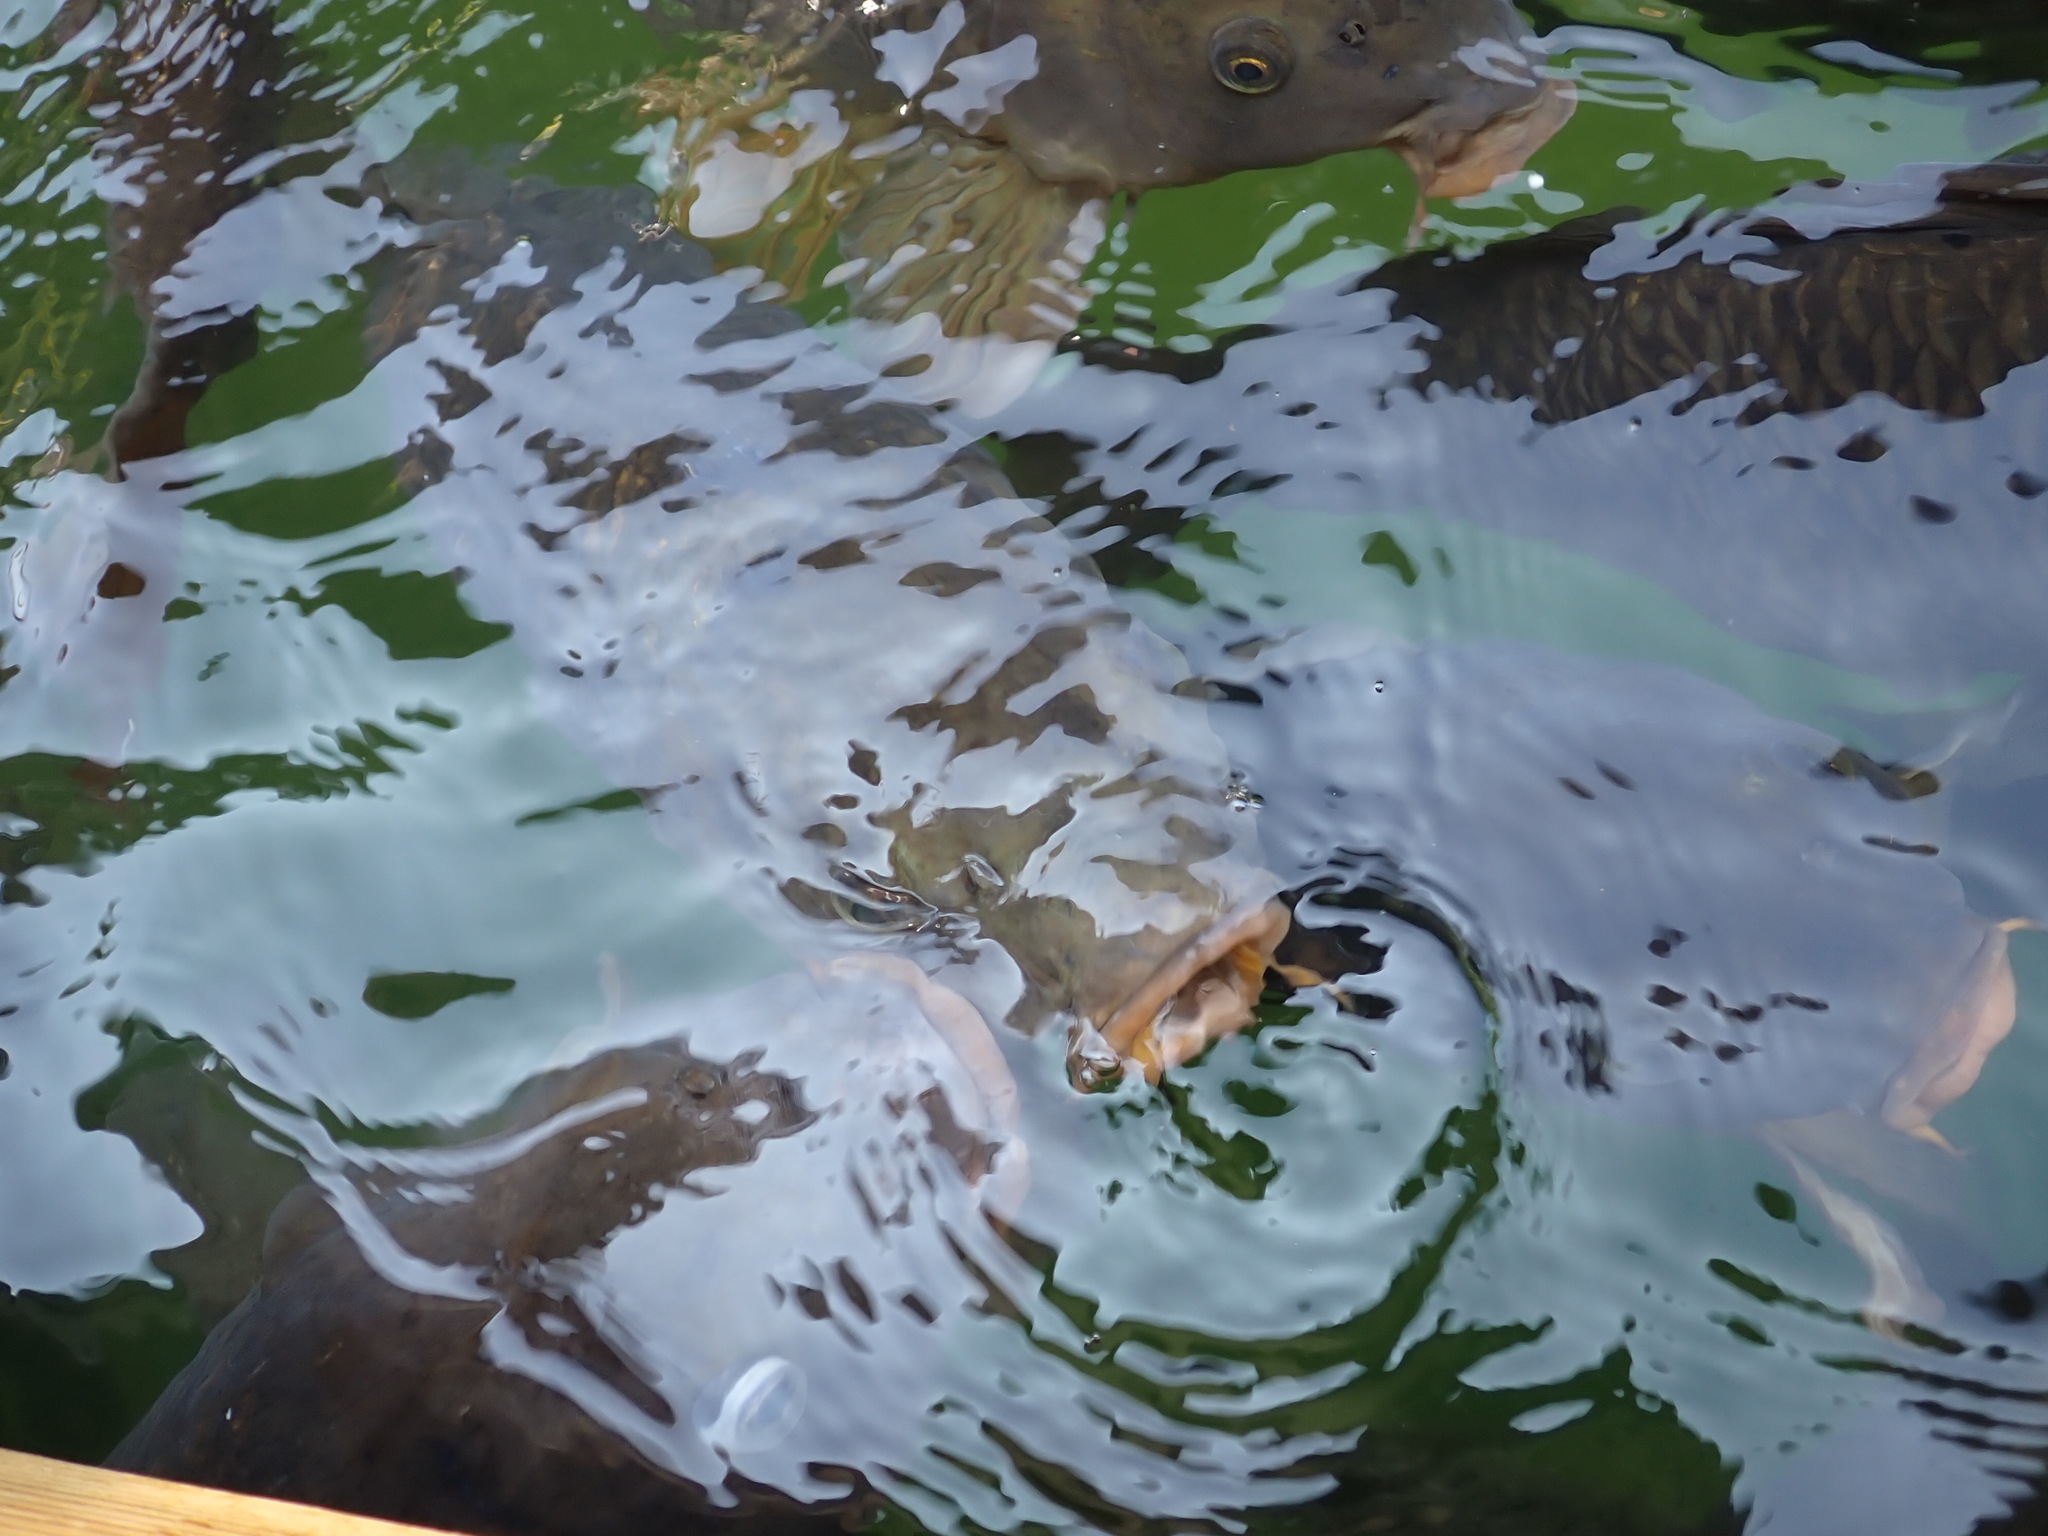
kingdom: Animalia
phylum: Chordata
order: Cypriniformes
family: Cyprinidae
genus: Cyprinus
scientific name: Cyprinus carpio
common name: Common carp
